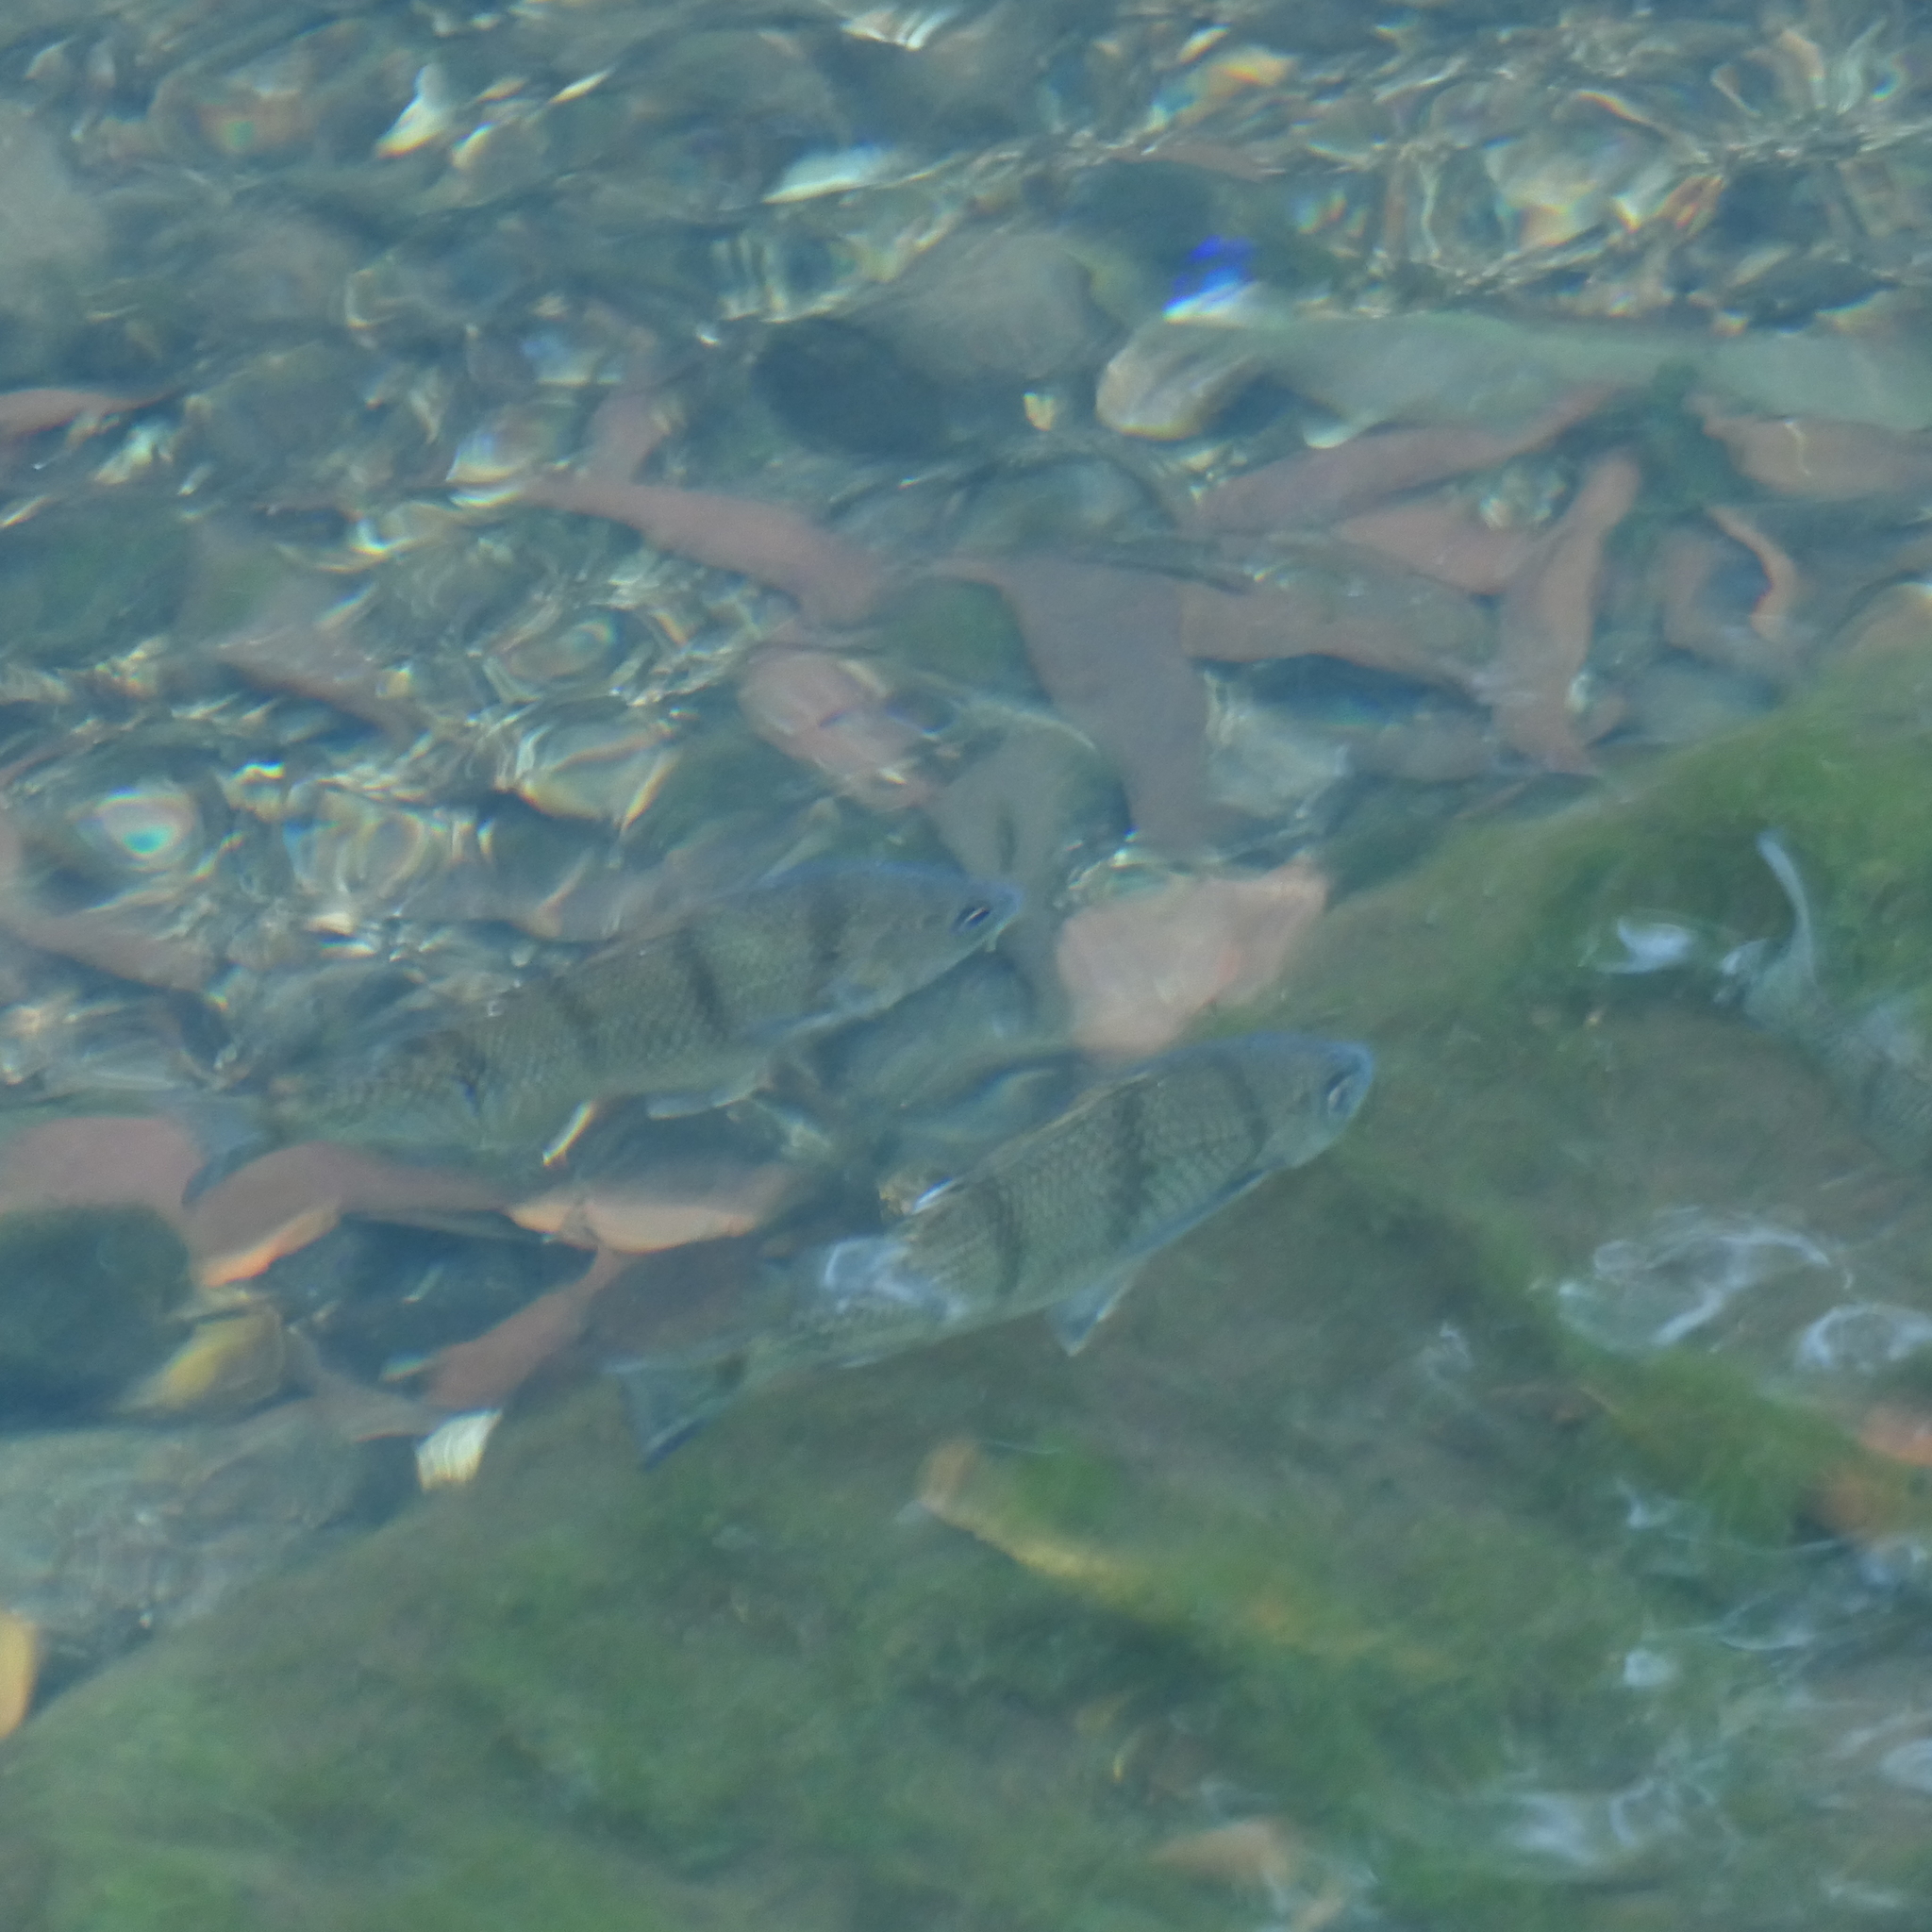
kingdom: Animalia
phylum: Chordata
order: Perciformes
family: Terapontidae
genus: Amniataba
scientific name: Amniataba percoides
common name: Banded grunter
